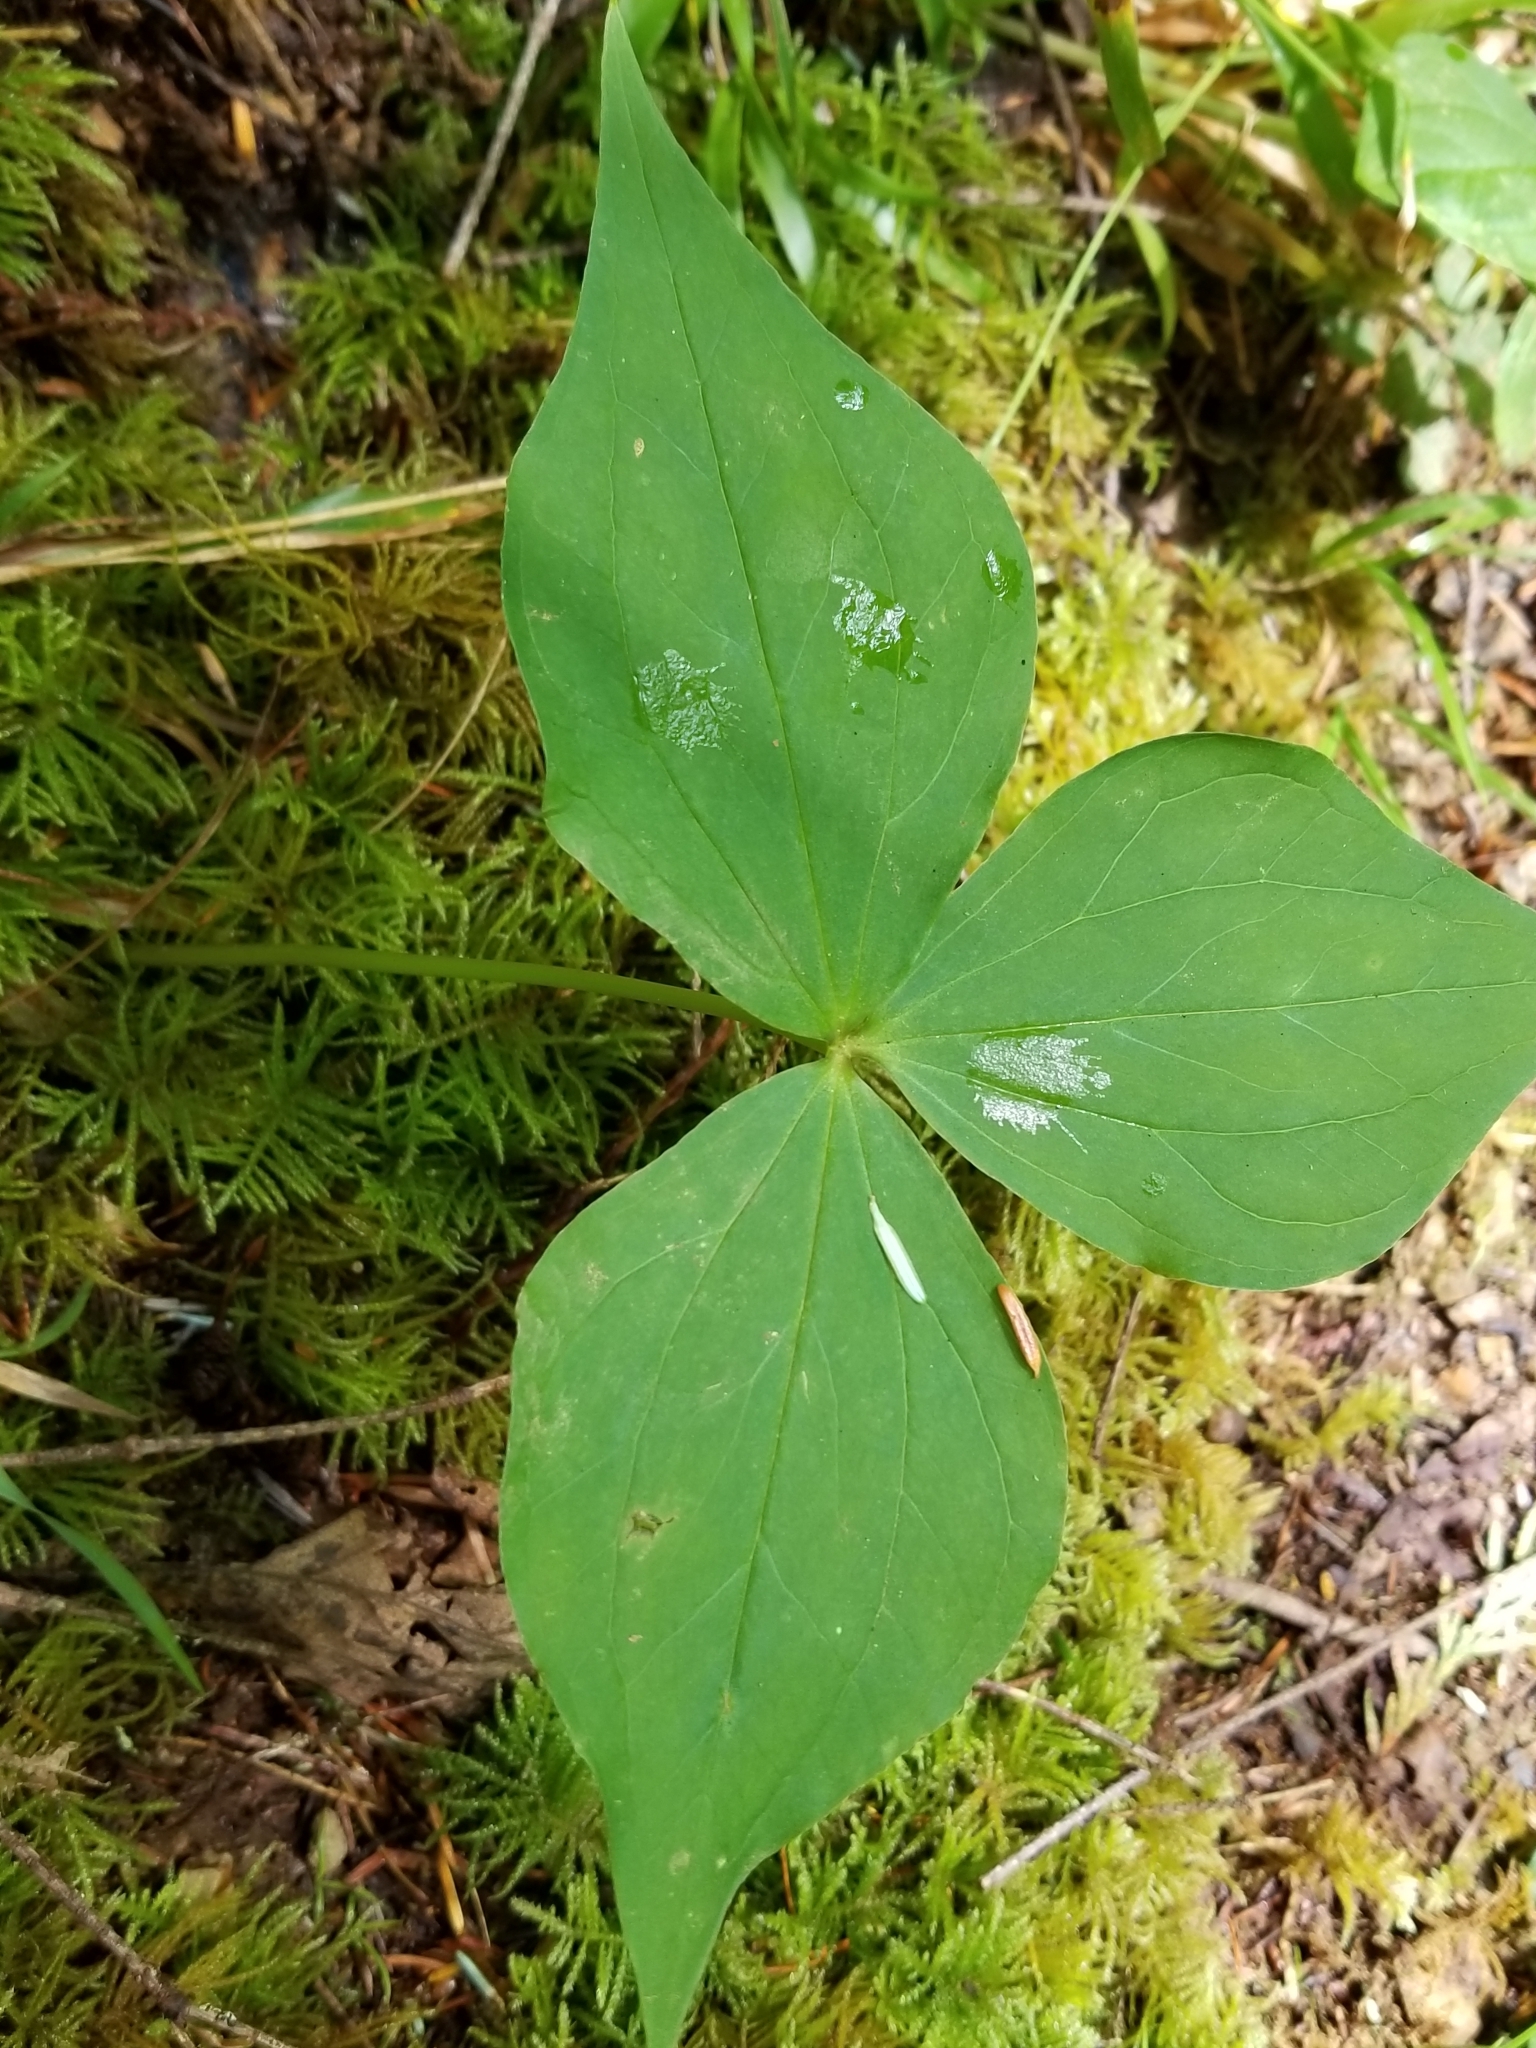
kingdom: Plantae
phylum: Tracheophyta
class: Liliopsida
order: Liliales
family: Melanthiaceae
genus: Trillium
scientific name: Trillium ovatum
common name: Pacific trillium
